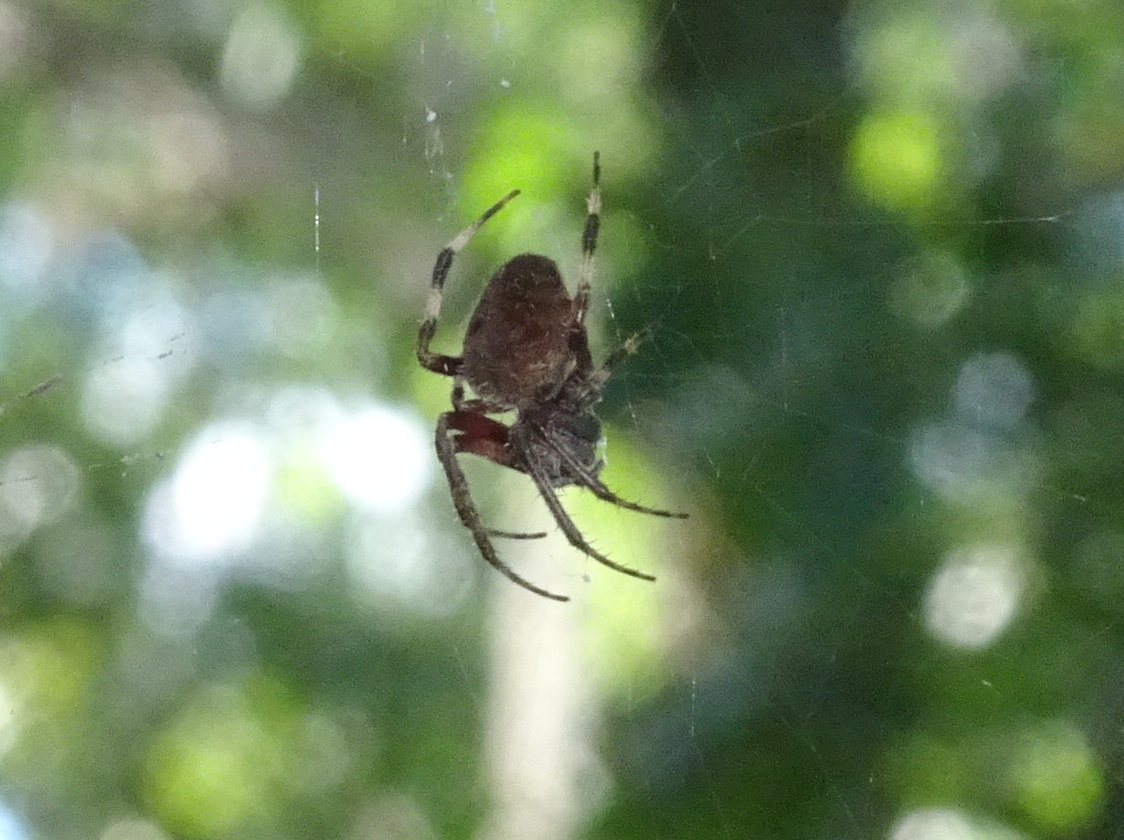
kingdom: Animalia
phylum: Arthropoda
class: Arachnida
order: Araneae
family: Araneidae
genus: Neoscona
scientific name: Neoscona crucifera
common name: Spotted orbweaver
